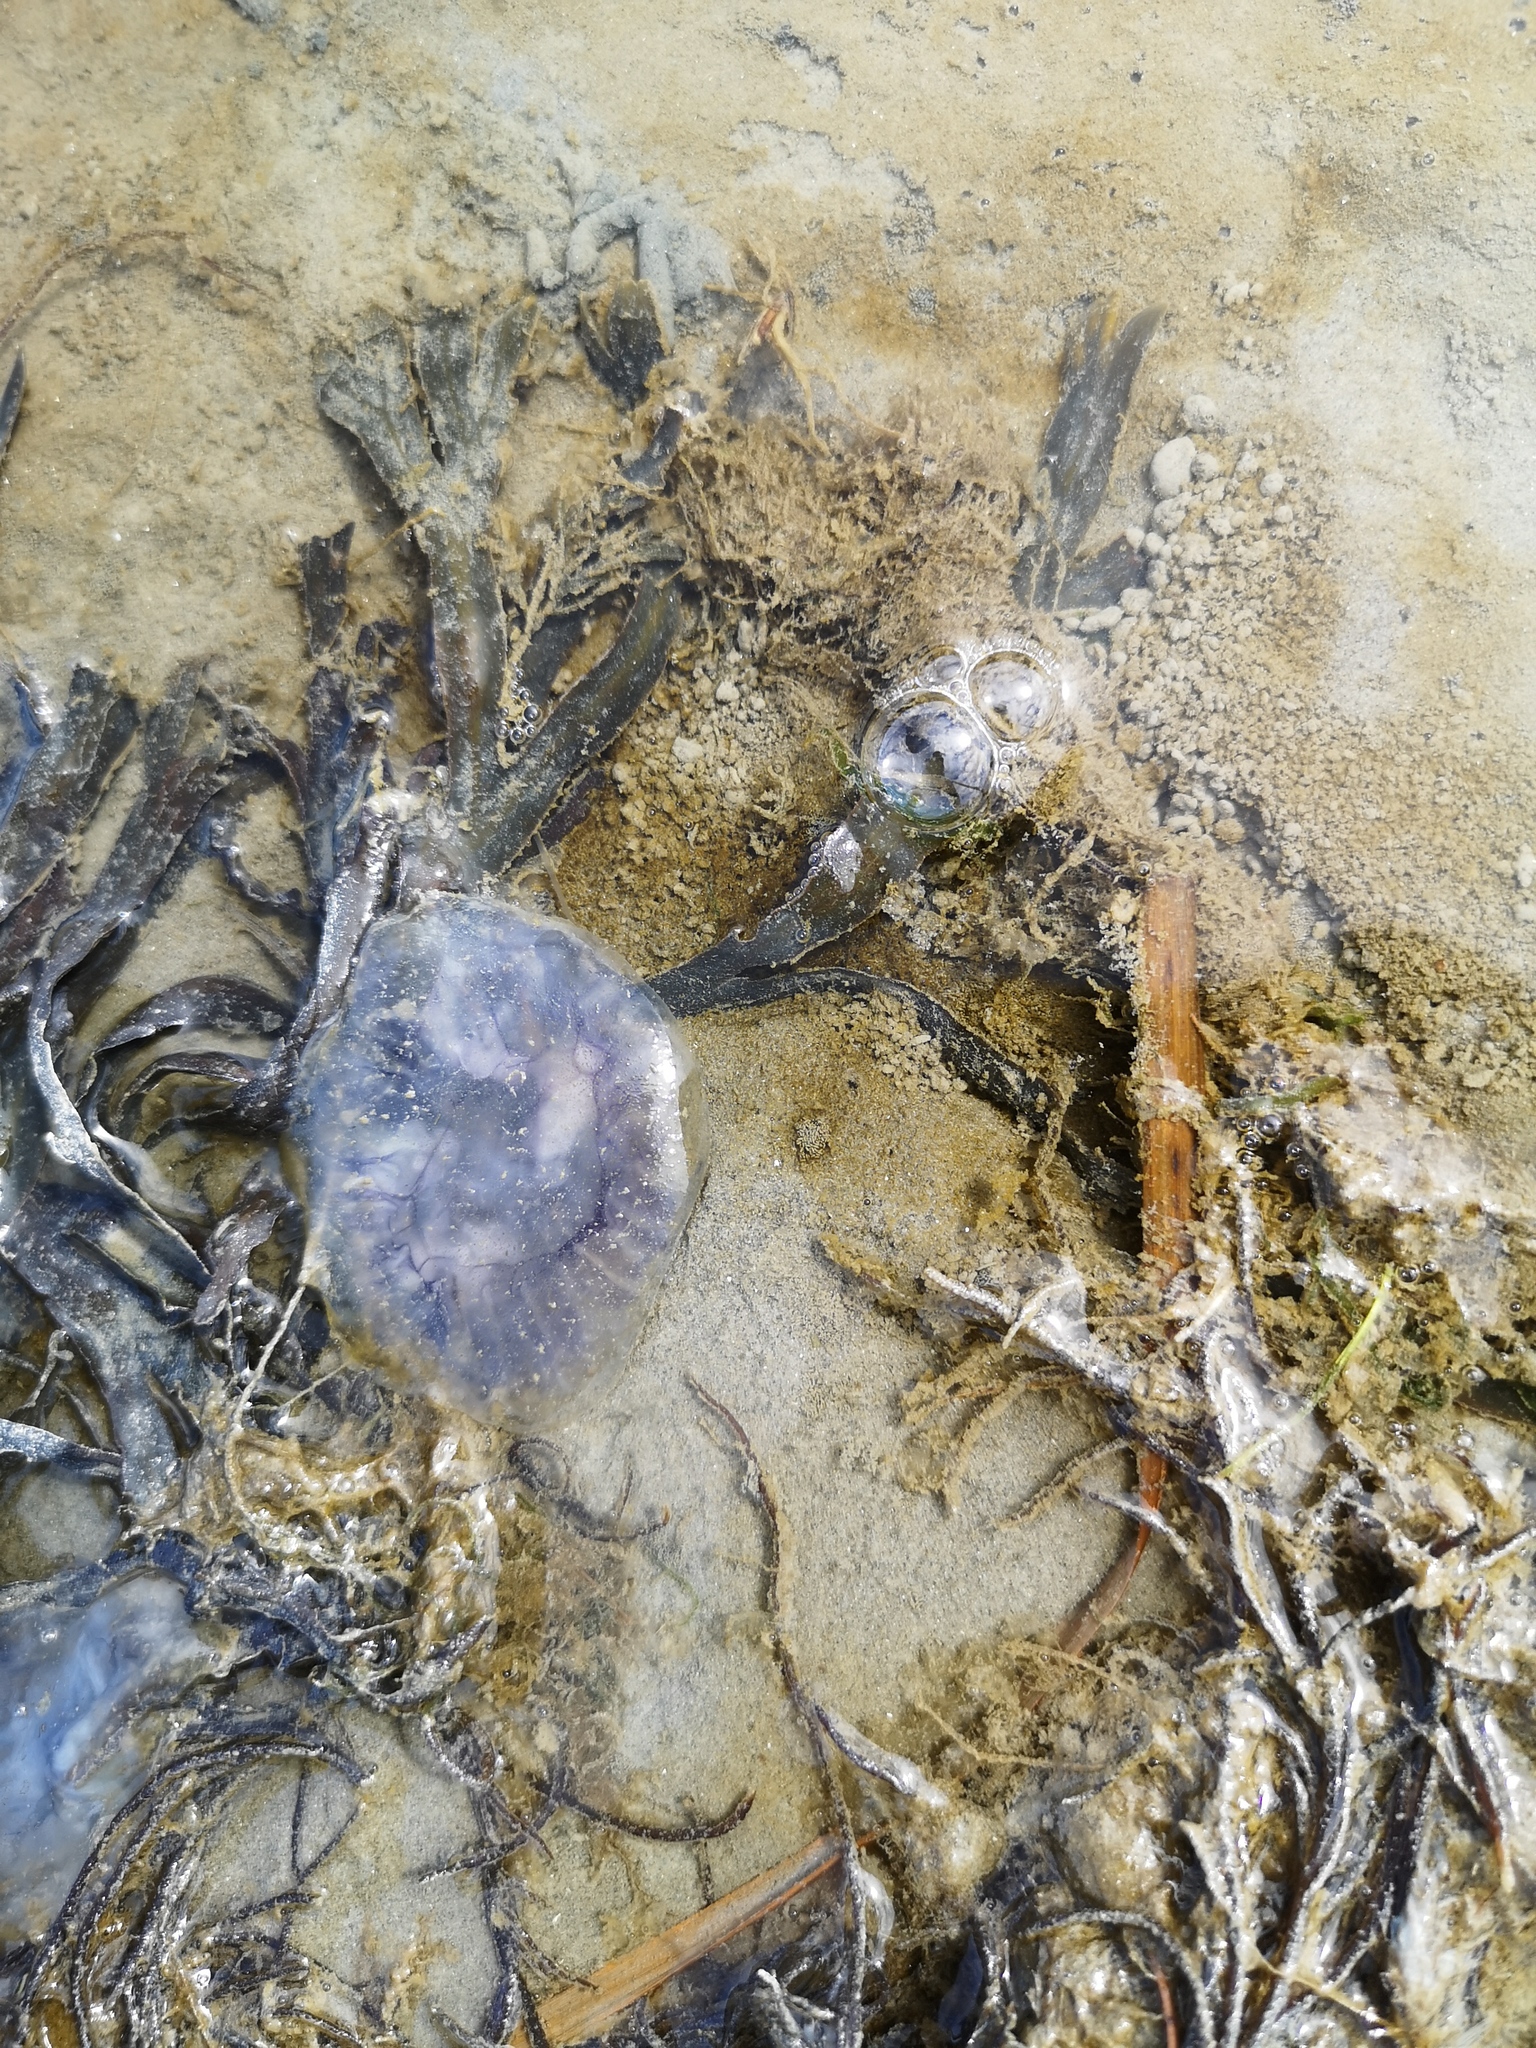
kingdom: Animalia
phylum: Cnidaria
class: Scyphozoa
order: Semaeostomeae
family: Cyaneidae
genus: Cyanea
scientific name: Cyanea lamarckii
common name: Blue jellyfish
